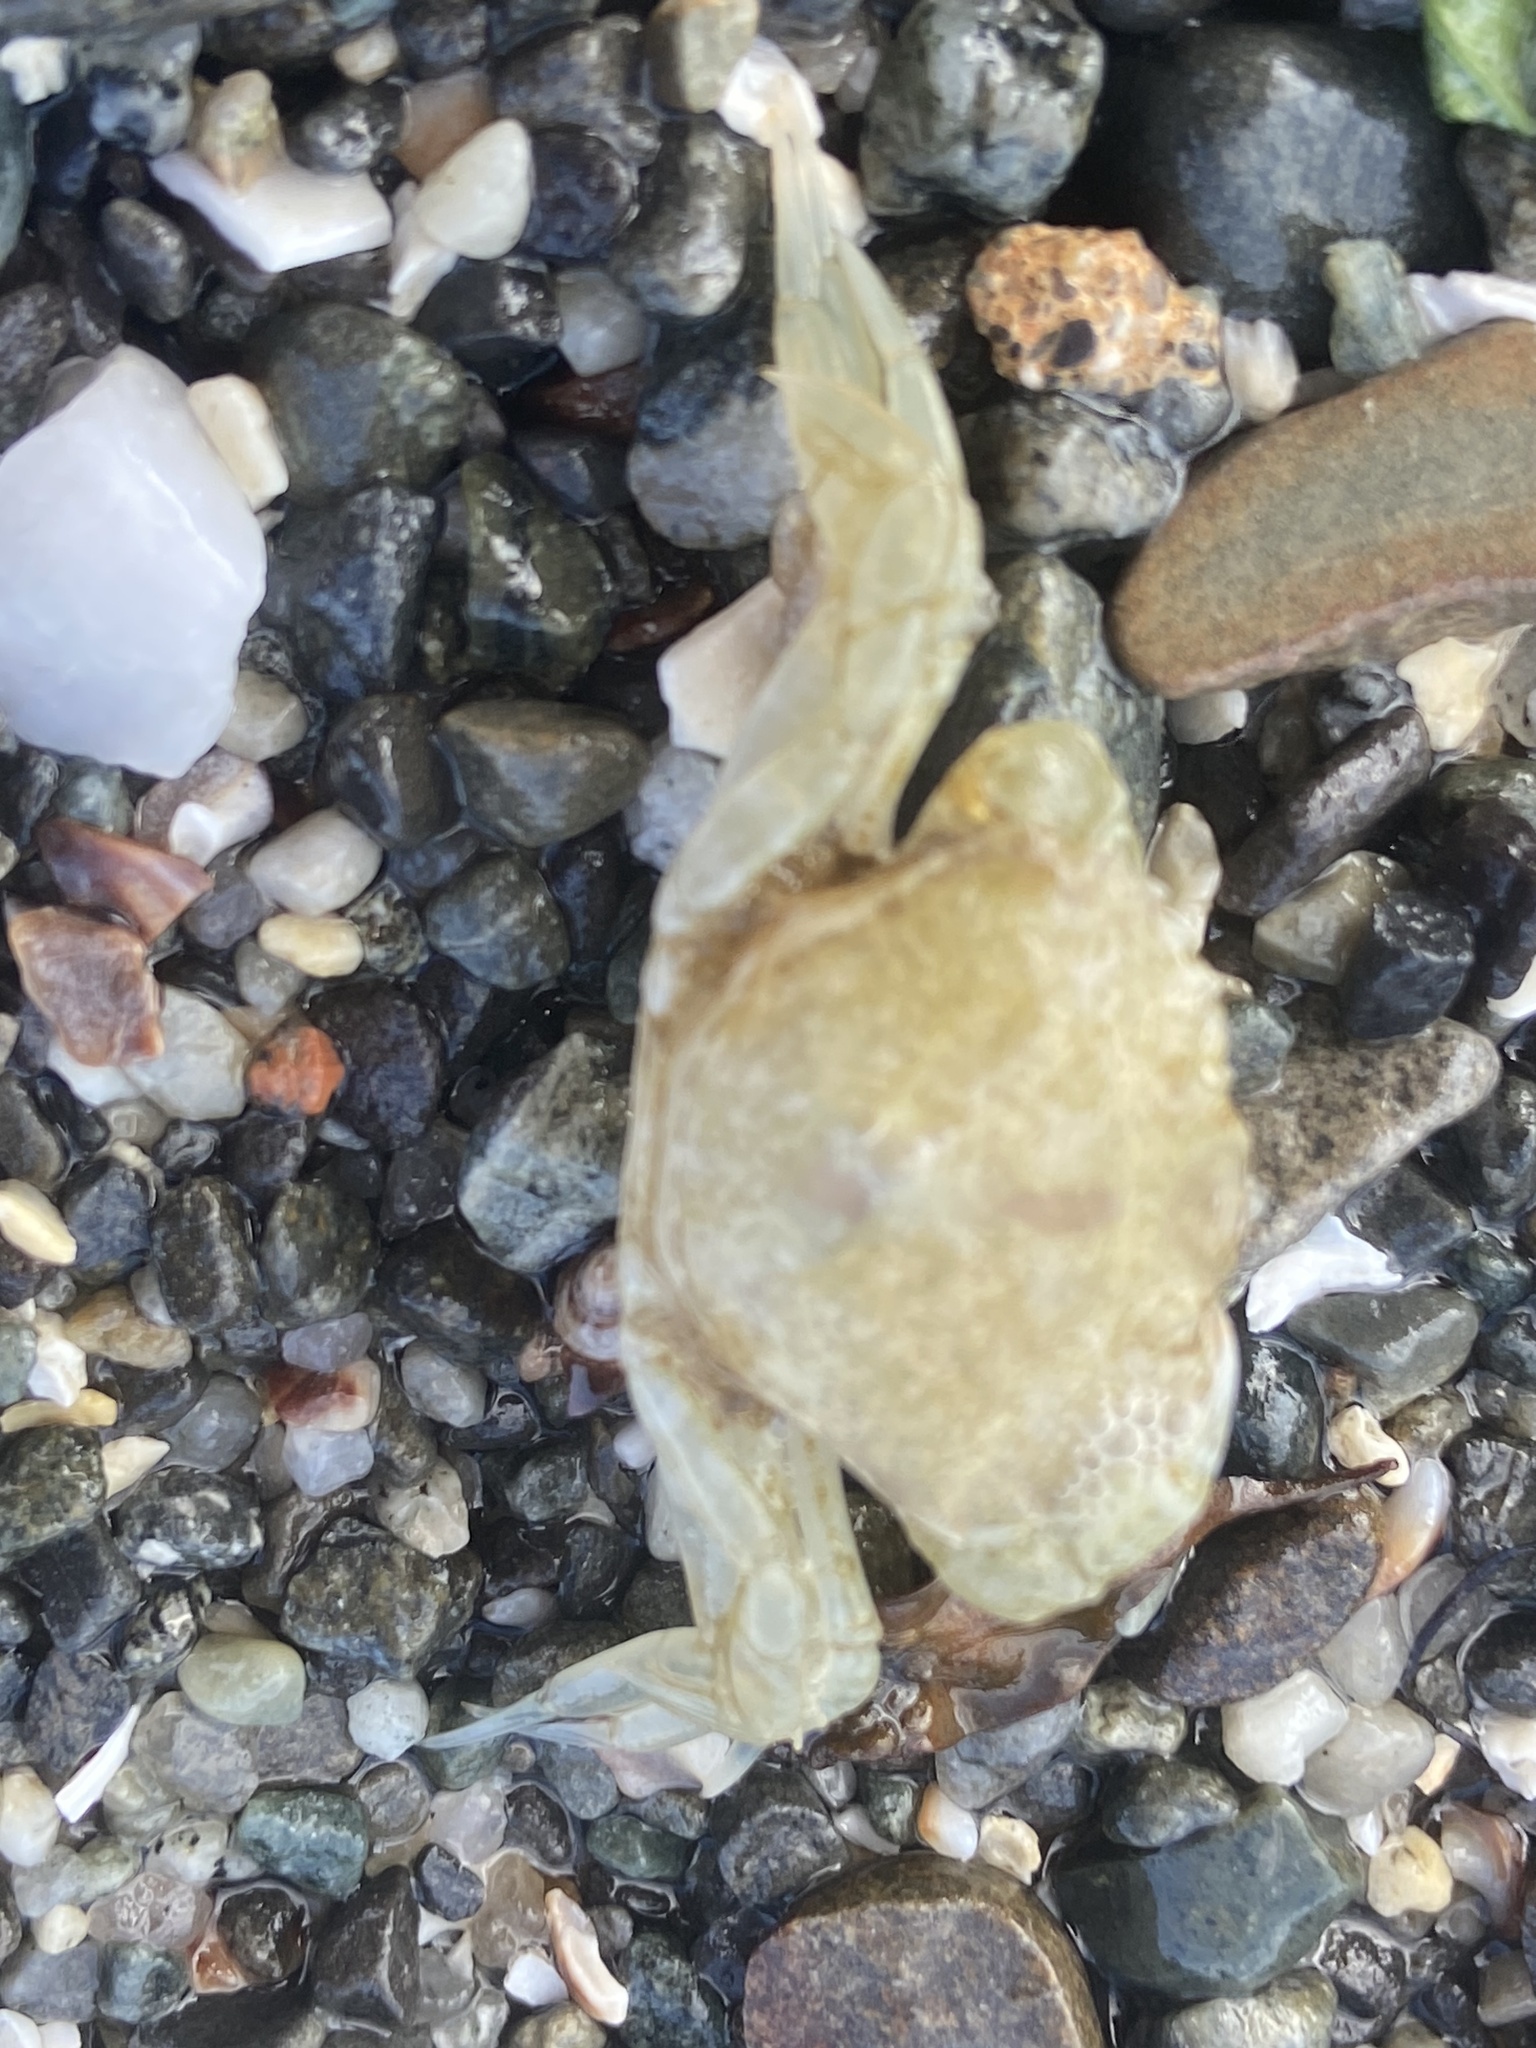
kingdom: Animalia
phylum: Arthropoda
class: Malacostraca
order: Decapoda
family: Carcinidae
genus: Carcinus
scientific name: Carcinus maenas
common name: European green crab
